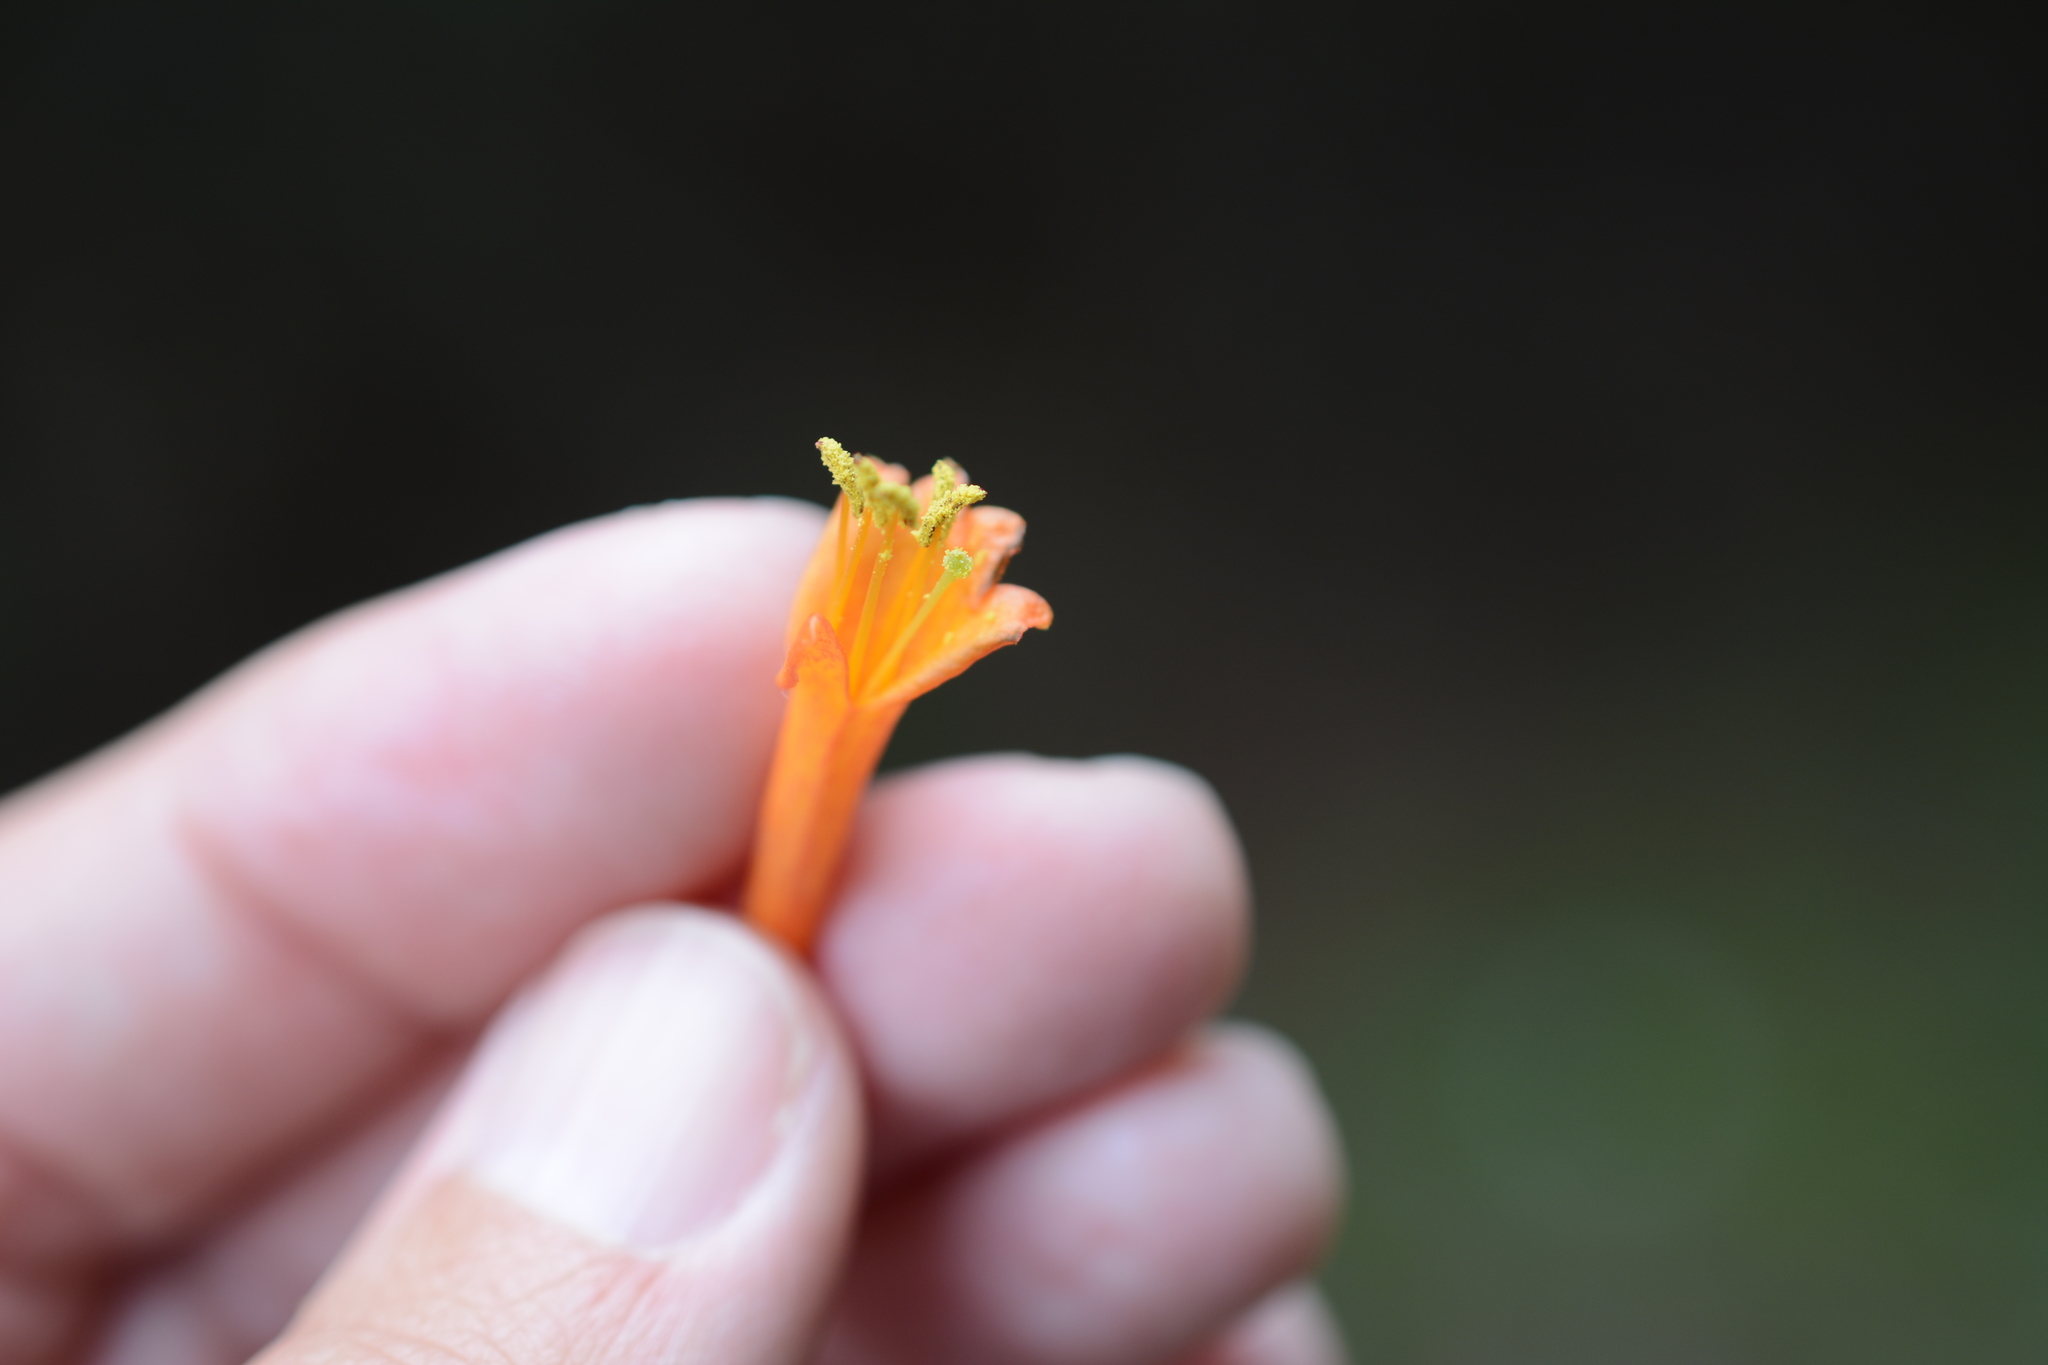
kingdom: Plantae
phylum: Tracheophyta
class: Magnoliopsida
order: Dipsacales
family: Caprifoliaceae
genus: Lonicera
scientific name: Lonicera ciliosa
